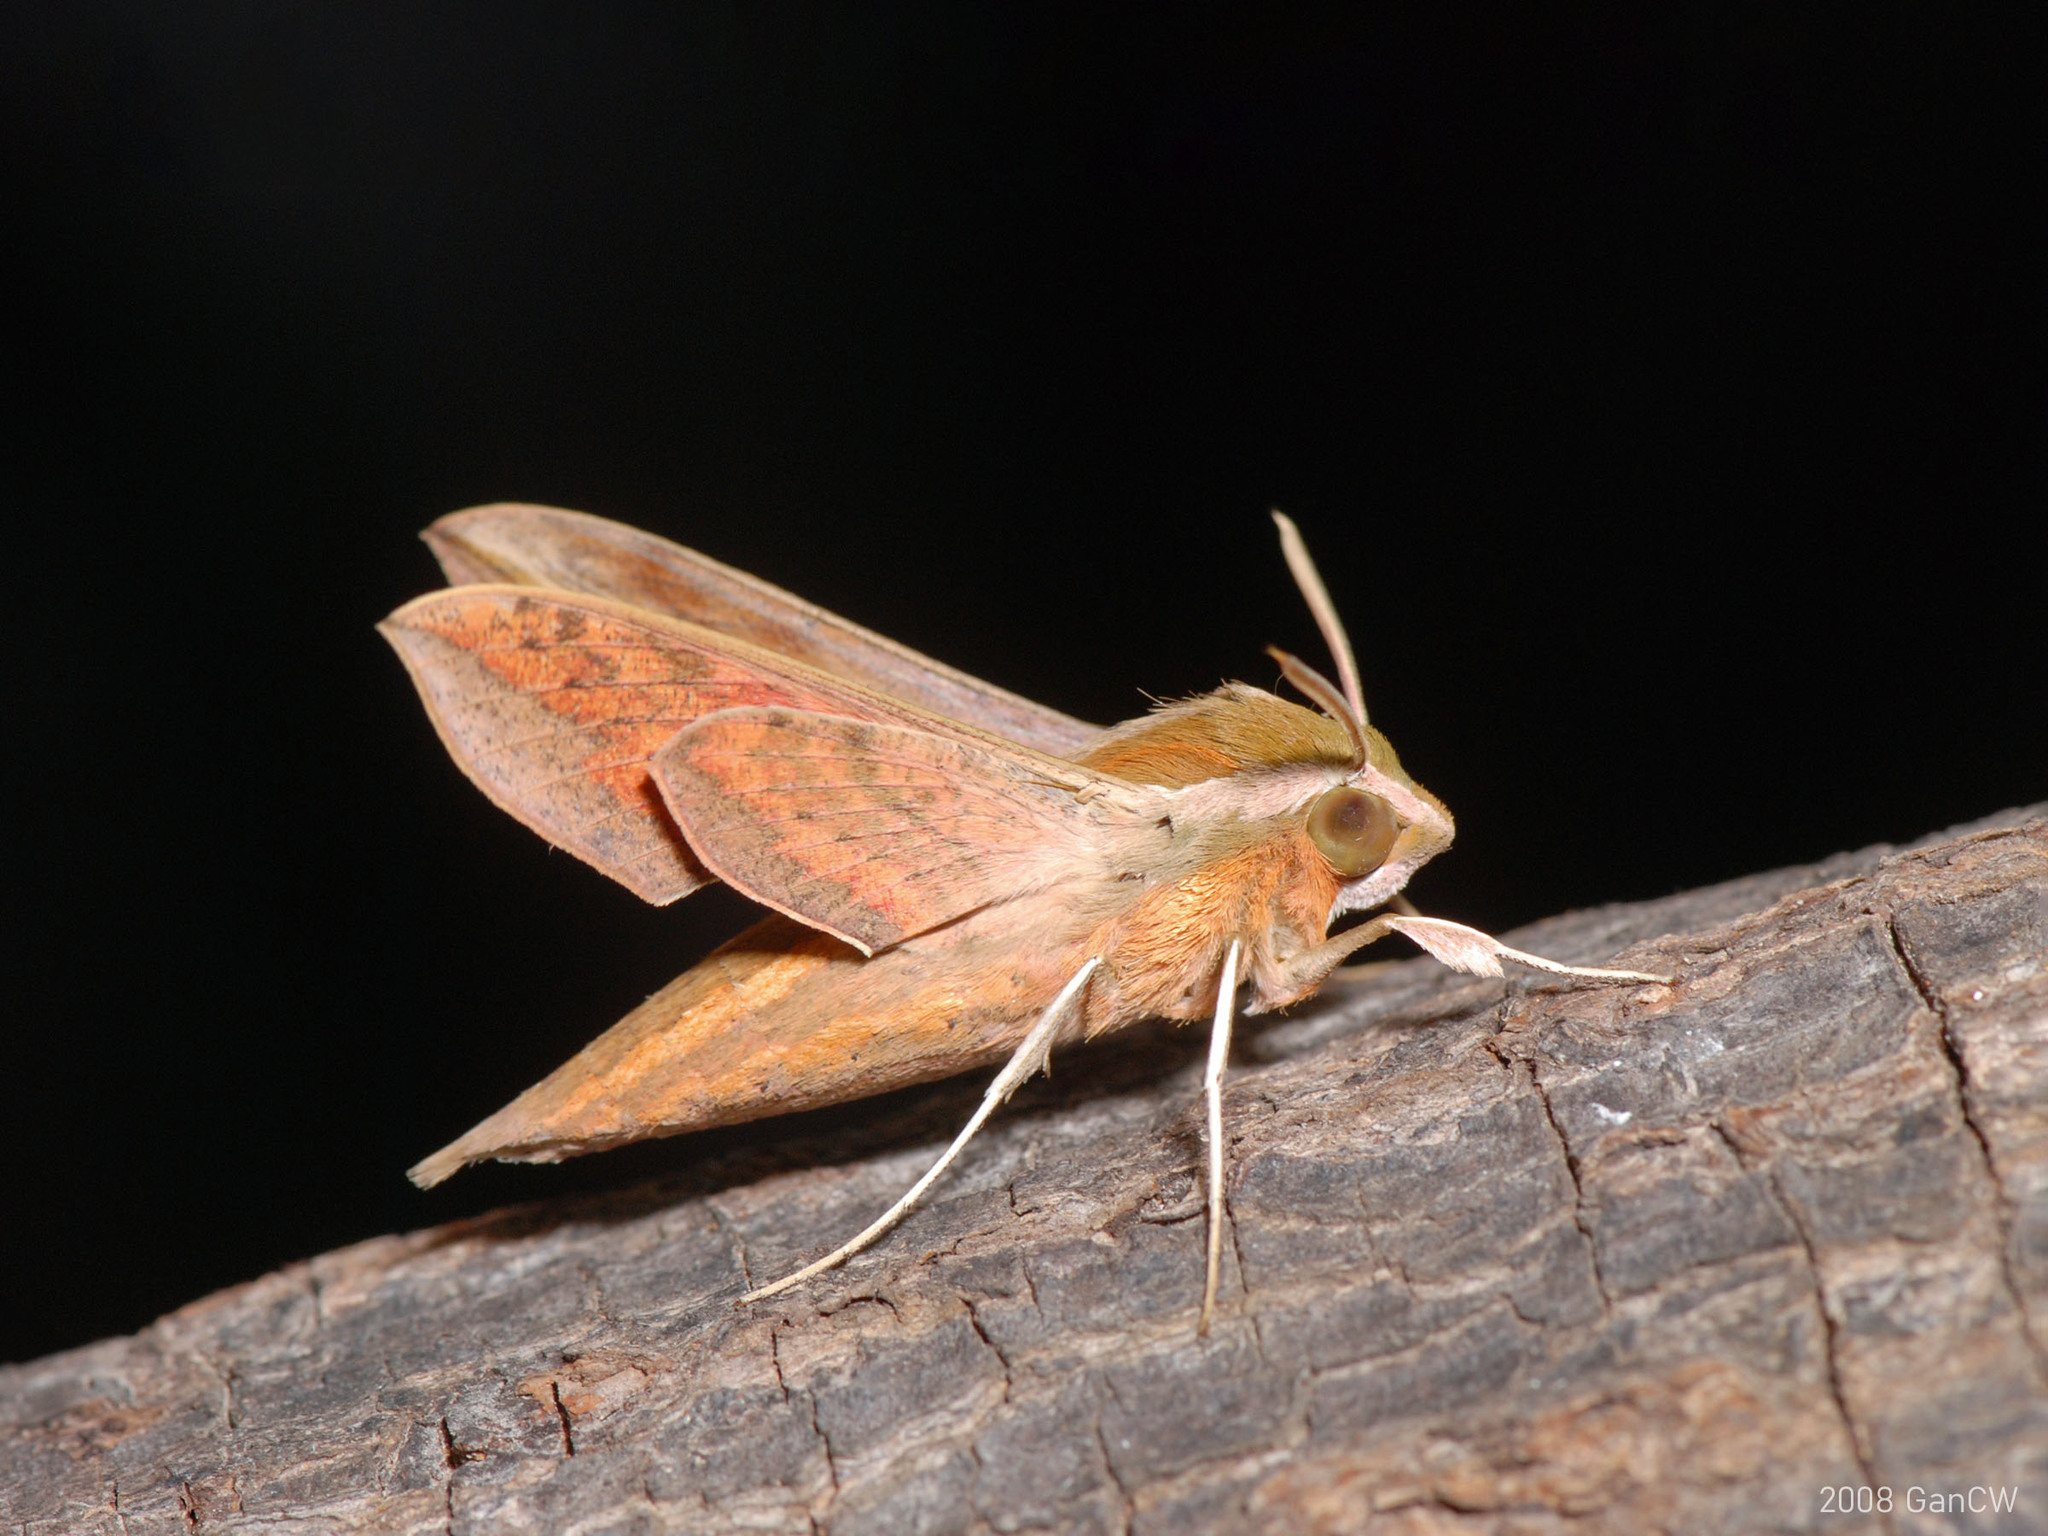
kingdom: Animalia
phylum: Arthropoda
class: Insecta
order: Lepidoptera
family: Sphingidae
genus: Hippotion
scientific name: Hippotion rosetta
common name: Vine hawk moth
